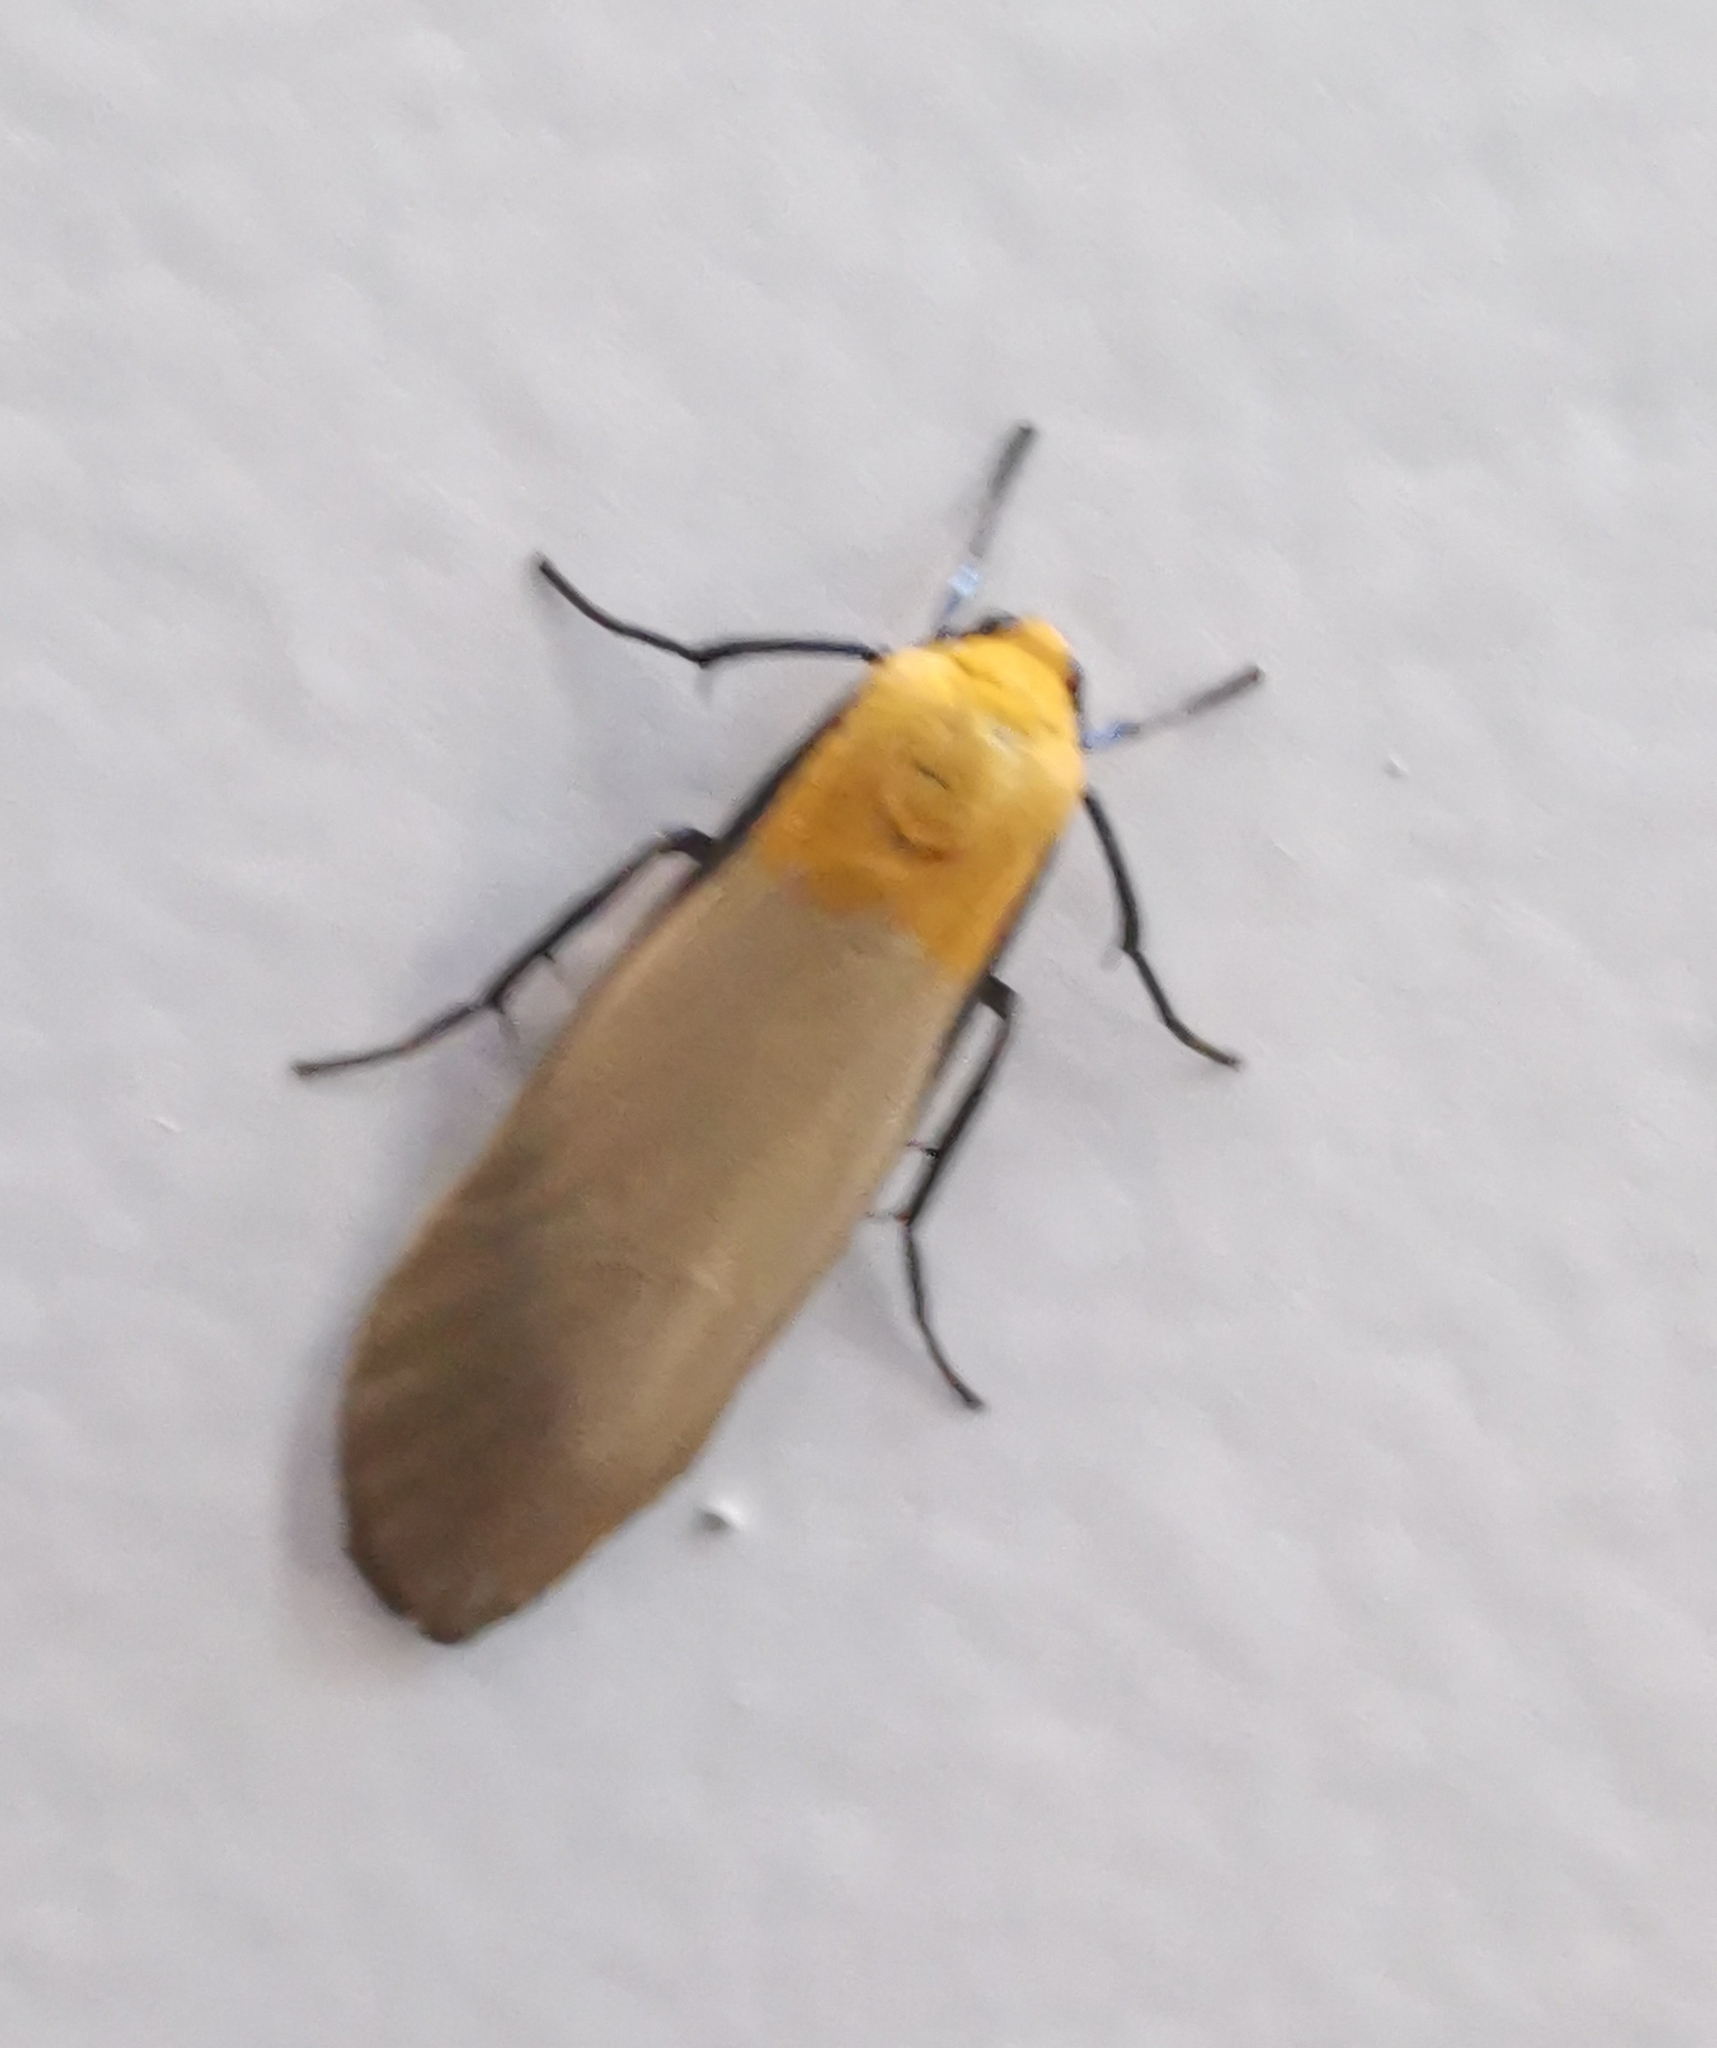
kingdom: Animalia
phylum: Arthropoda
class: Insecta
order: Lepidoptera
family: Erebidae
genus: Lithosia
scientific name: Lithosia quadra
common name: Four-spotted footman
